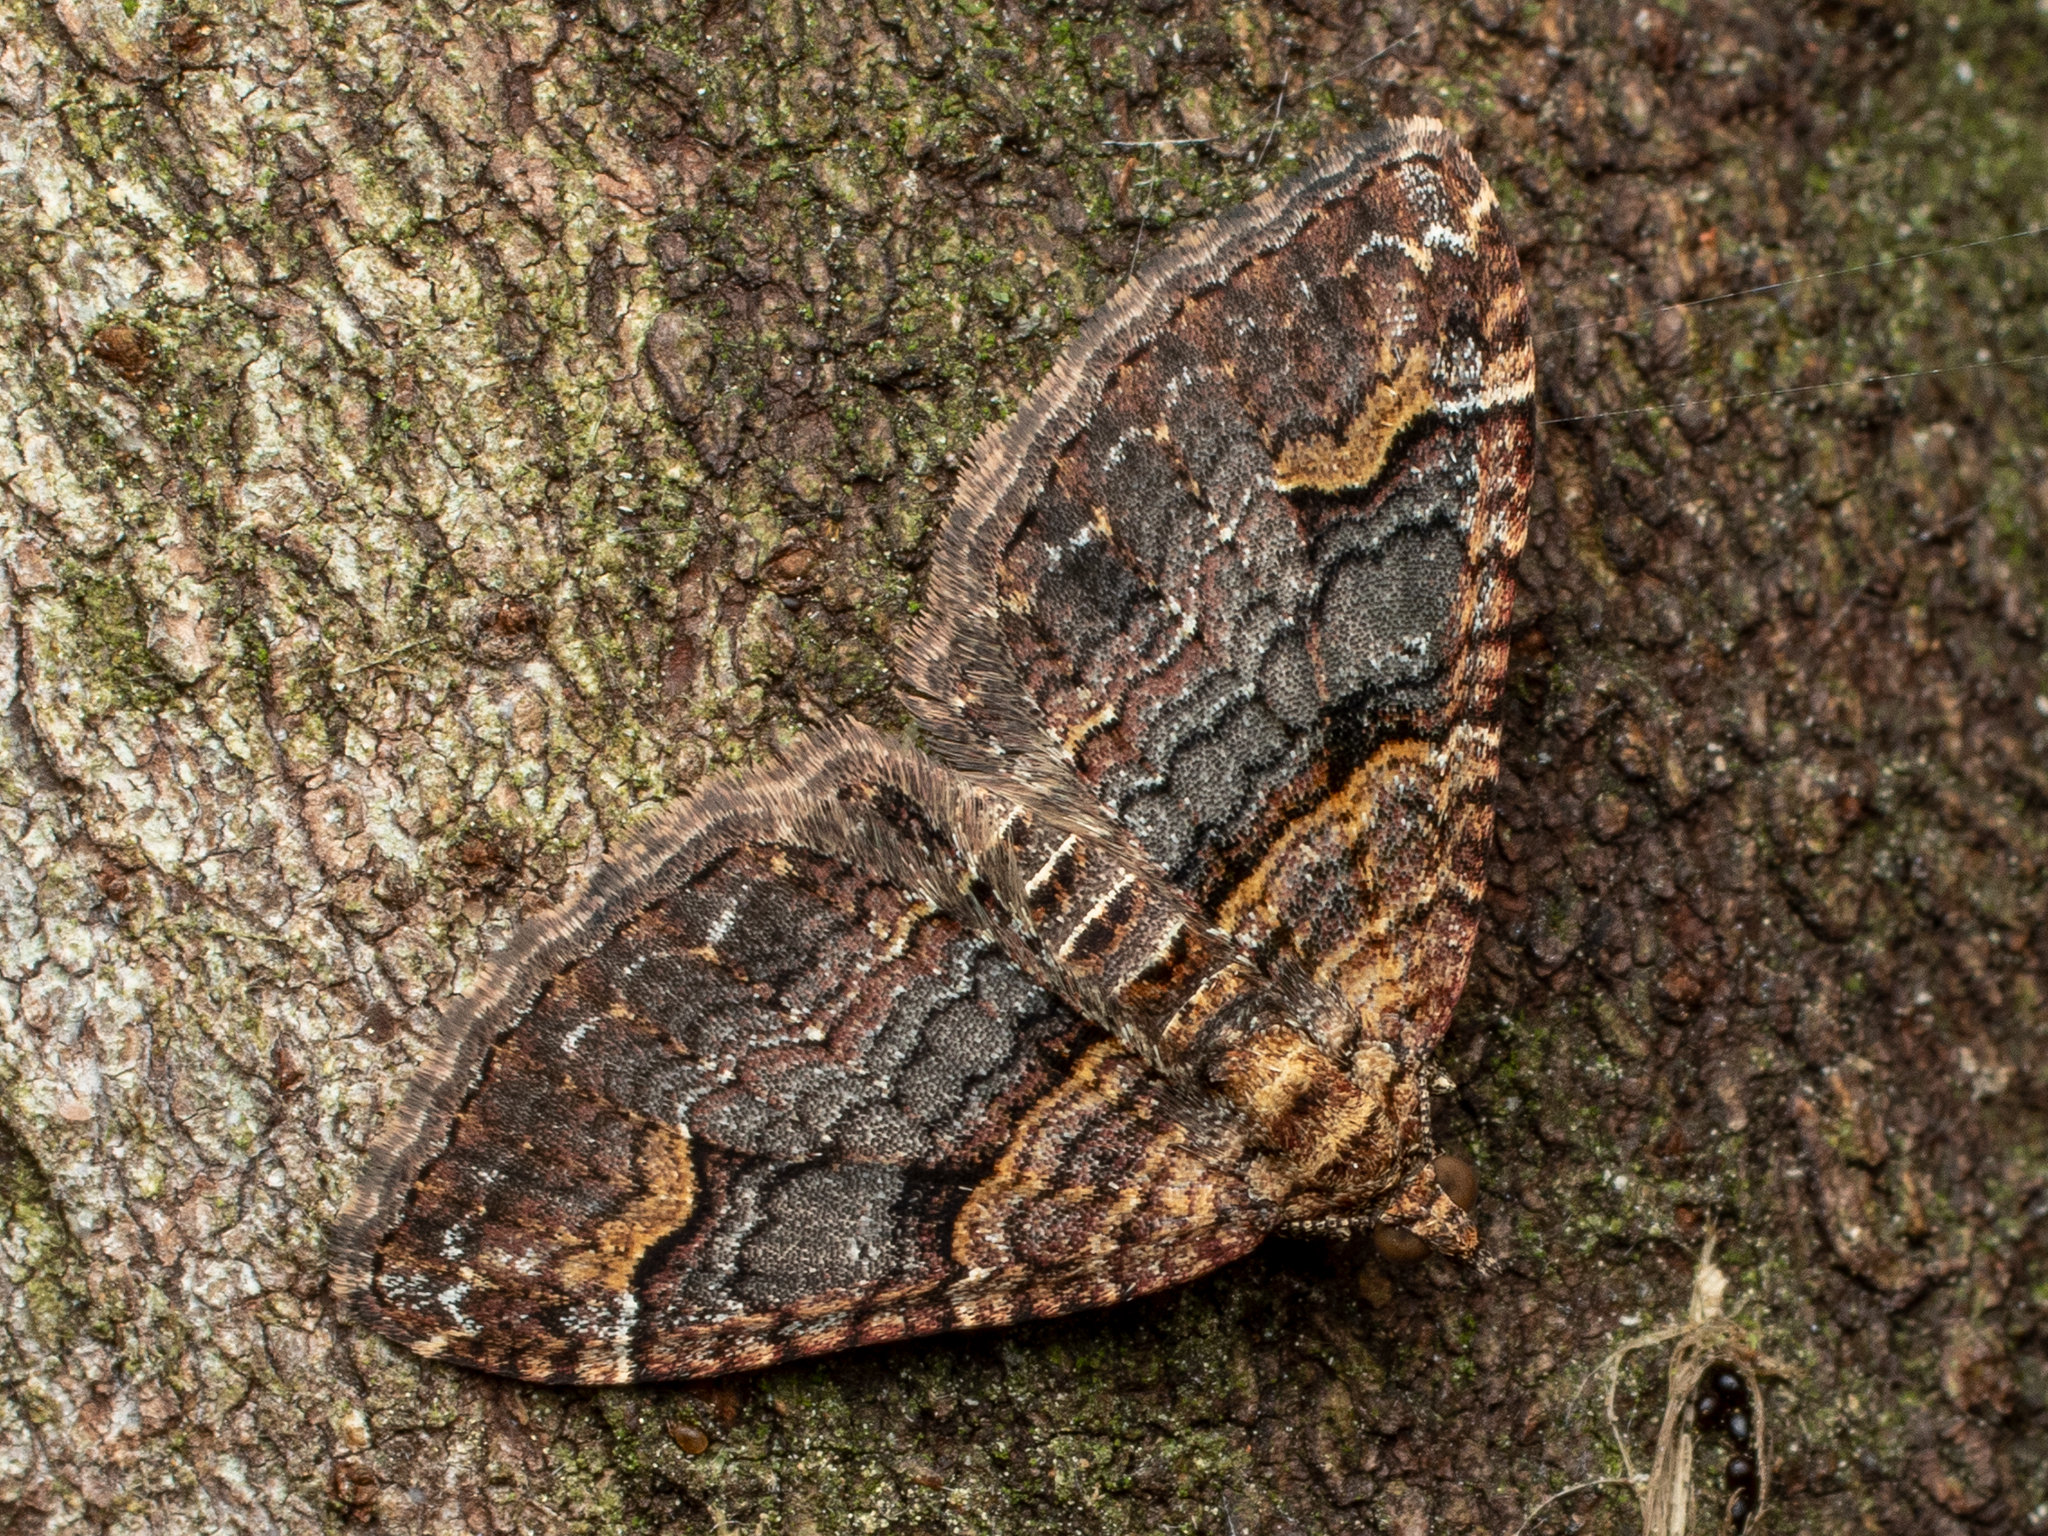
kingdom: Animalia
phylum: Arthropoda
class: Insecta
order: Lepidoptera
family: Geometridae
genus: Epyaxa
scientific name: Epyaxa lucidata
